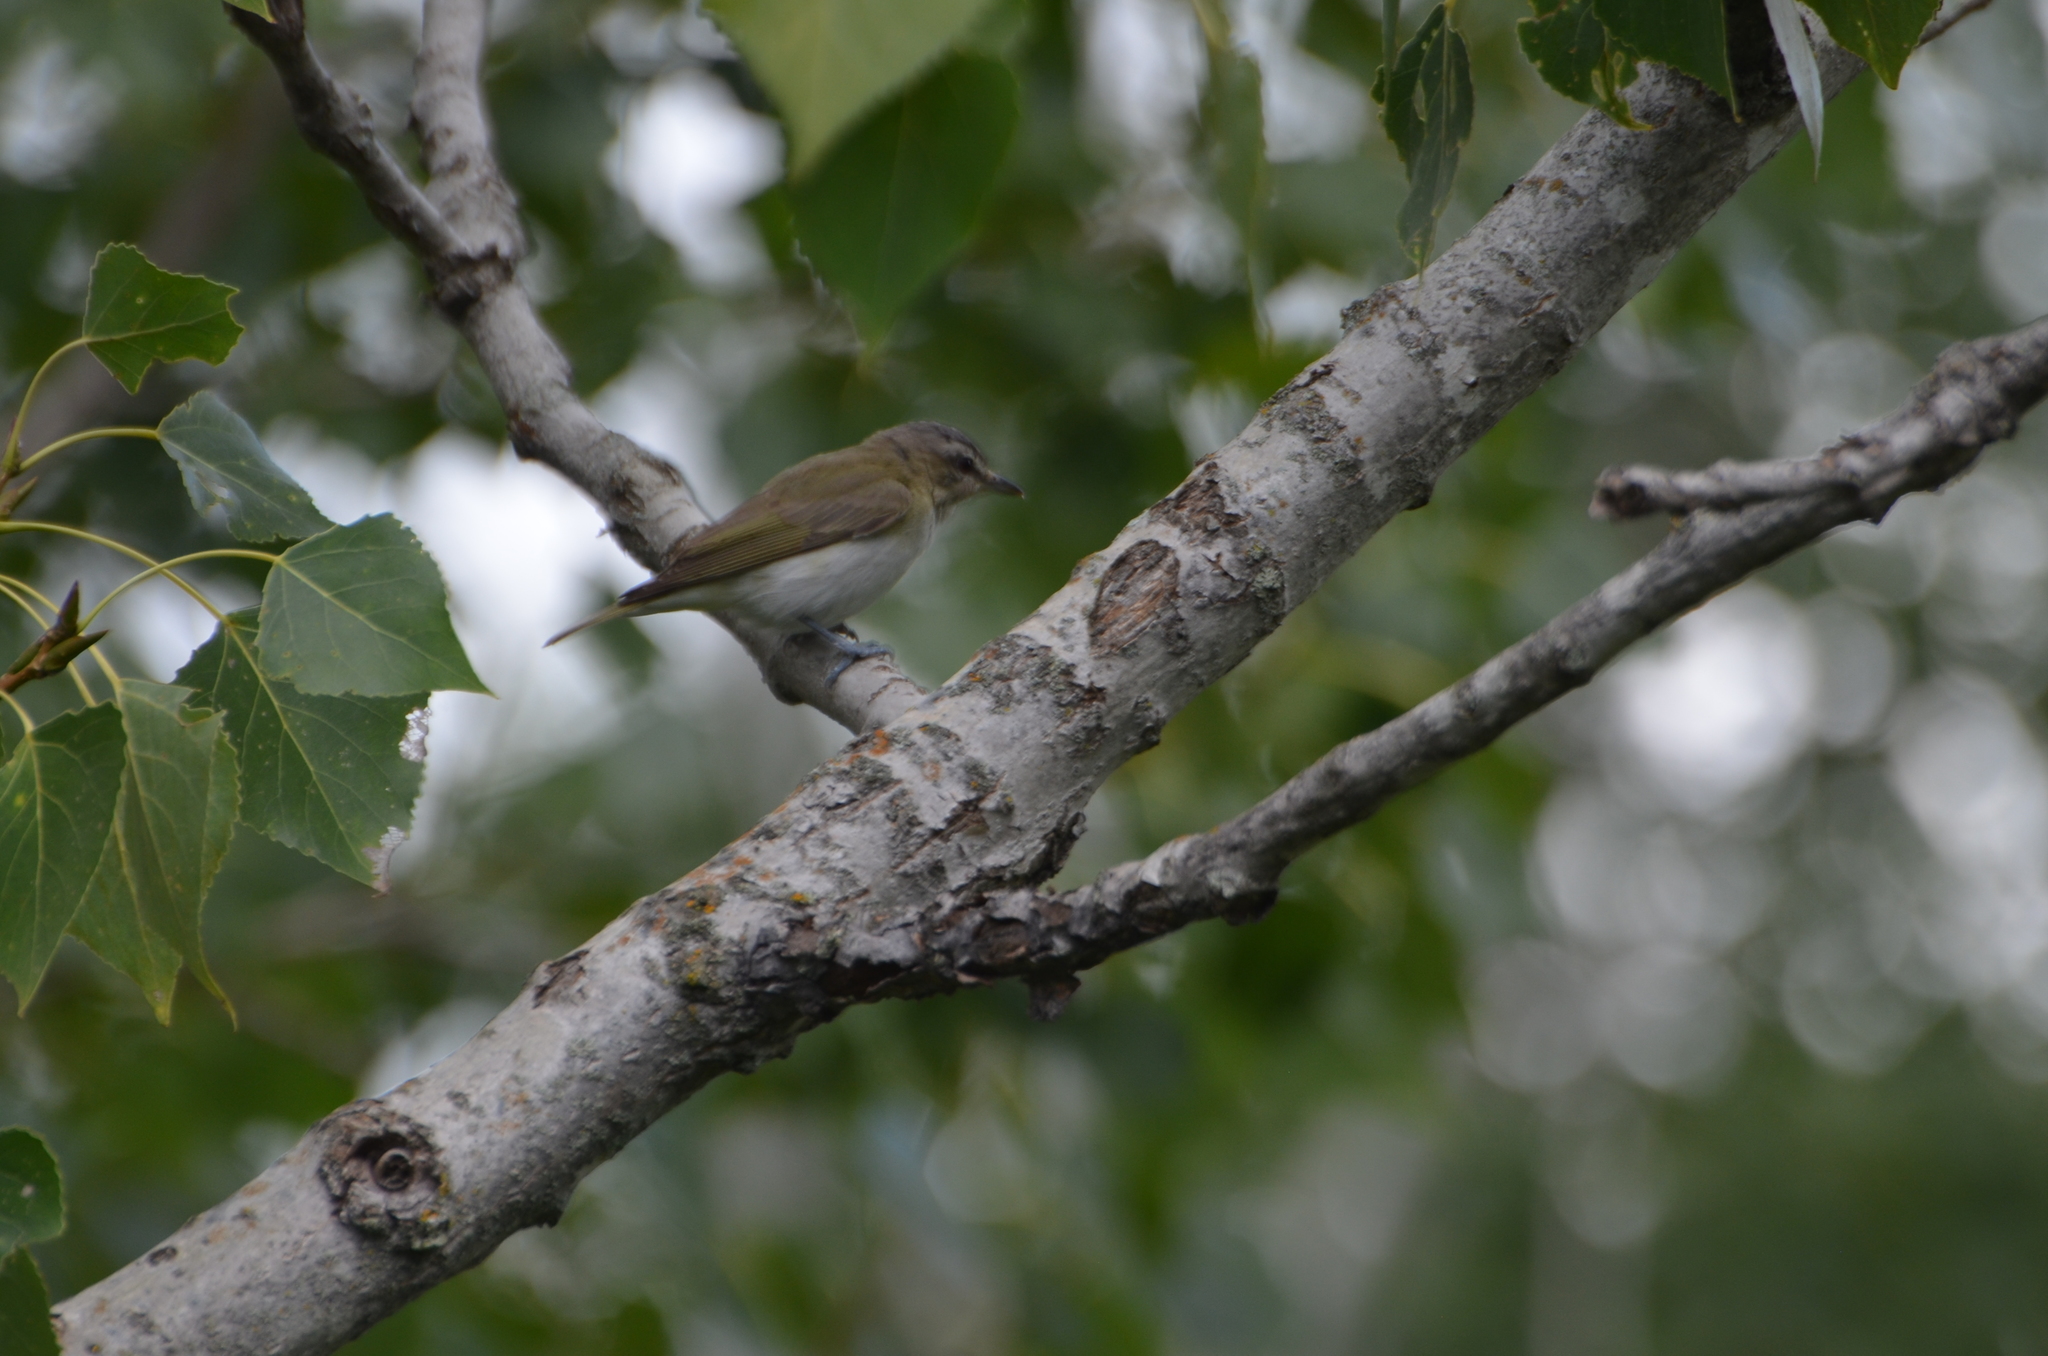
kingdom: Animalia
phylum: Chordata
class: Aves
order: Passeriformes
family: Vireonidae
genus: Vireo
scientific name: Vireo olivaceus
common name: Red-eyed vireo
